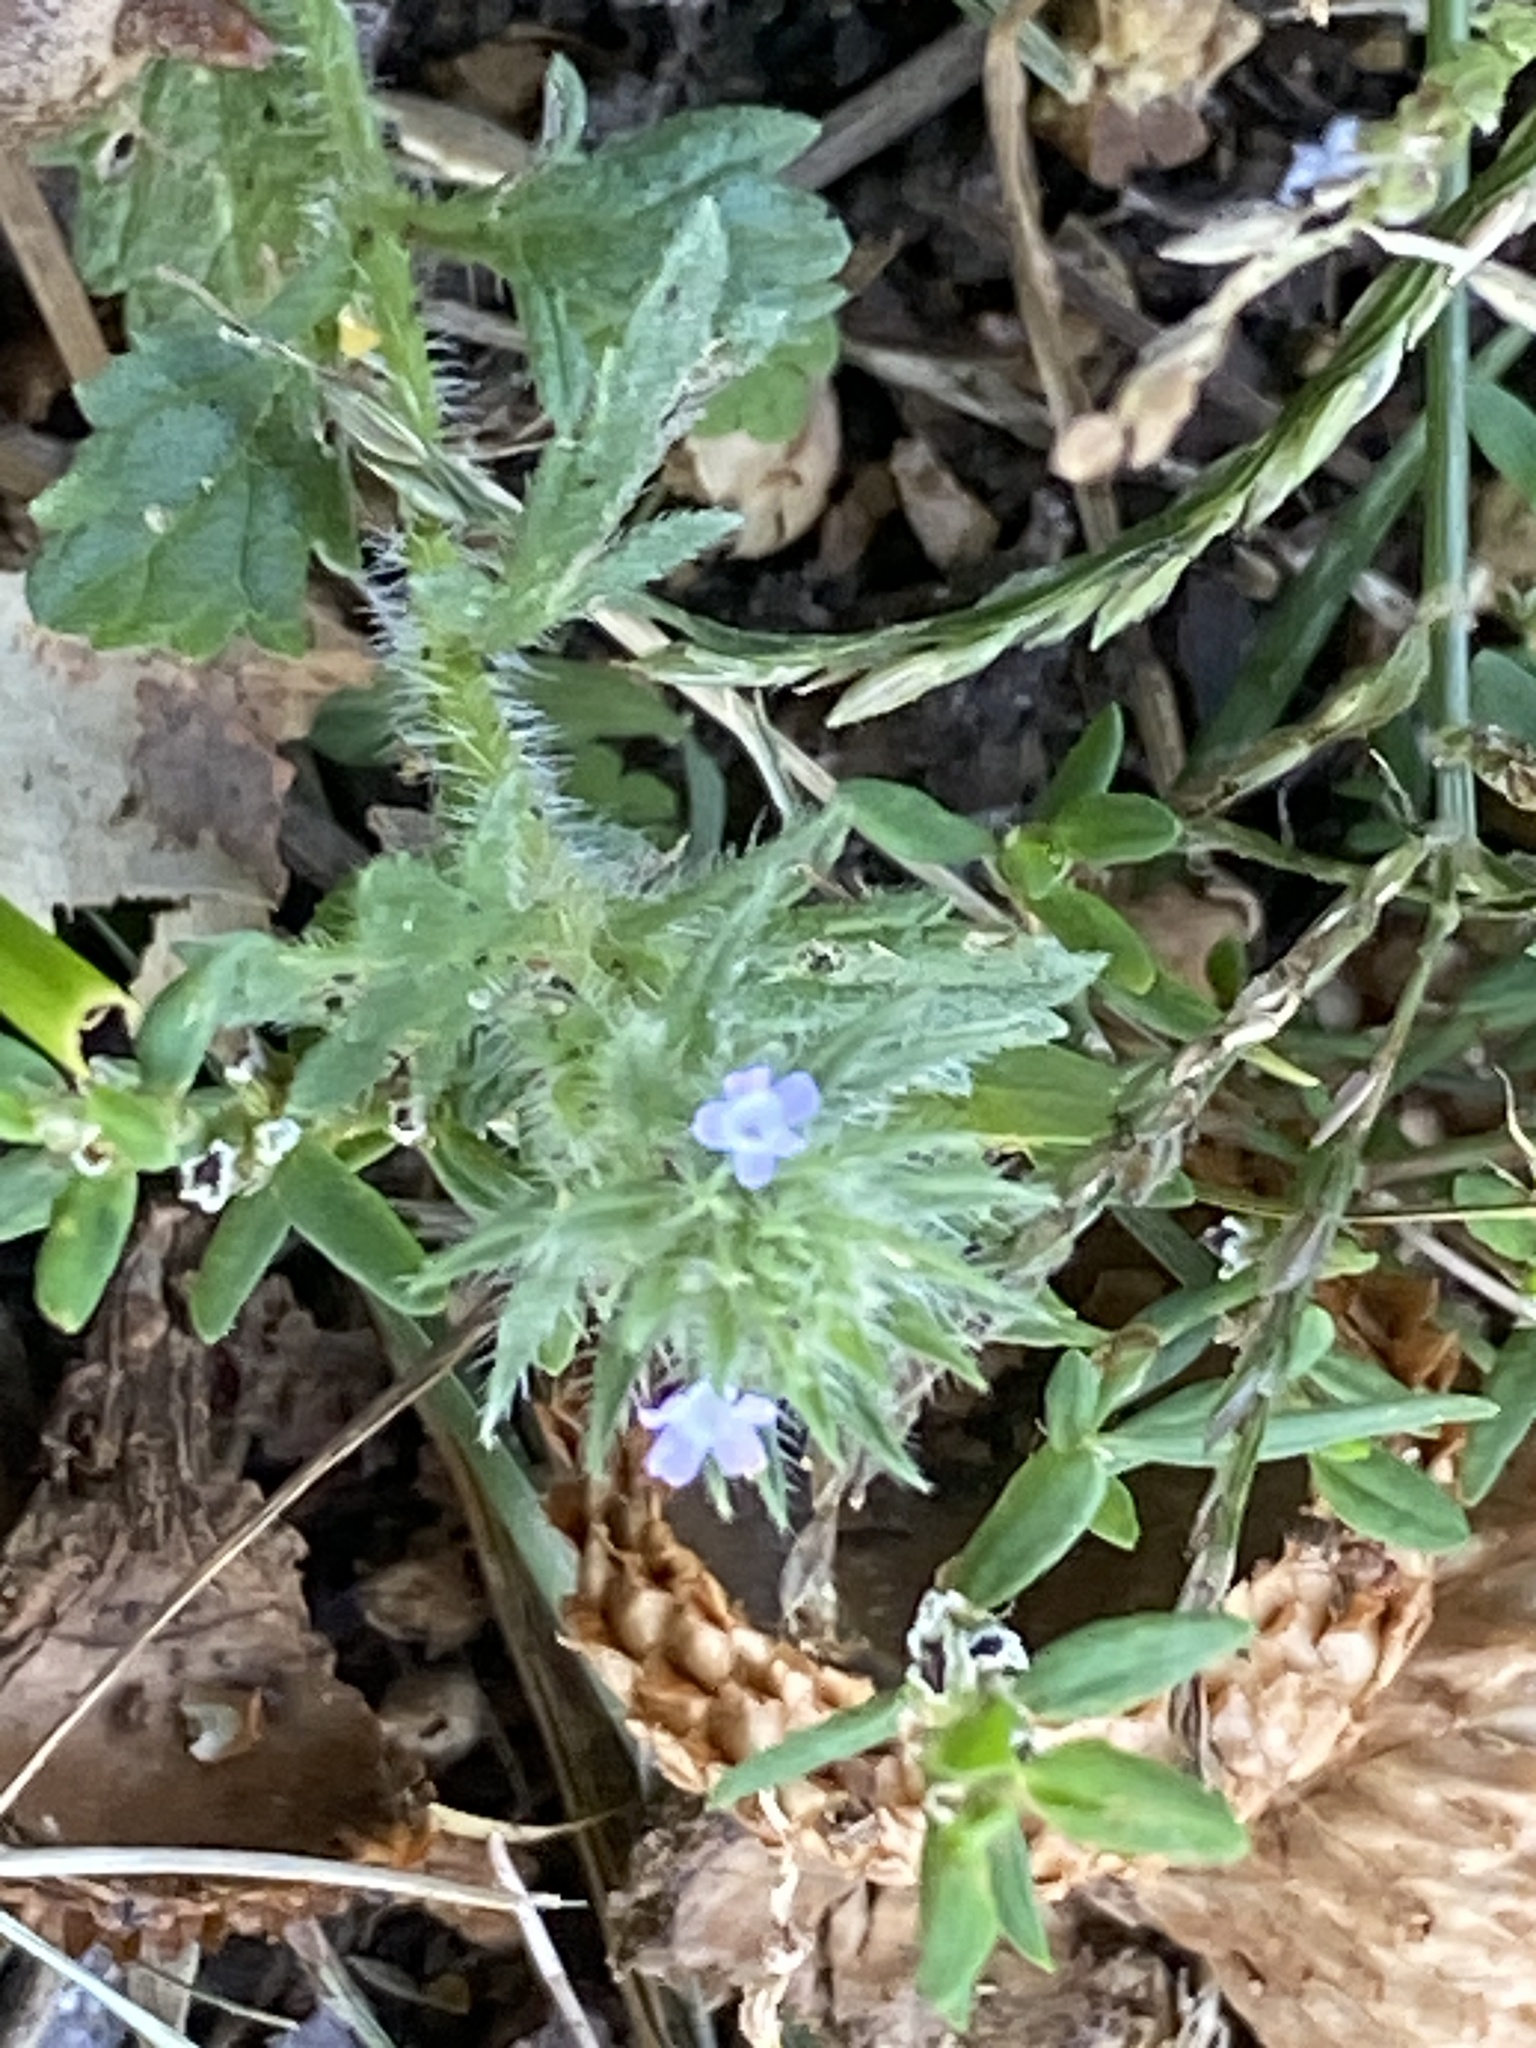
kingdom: Plantae
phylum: Tracheophyta
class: Magnoliopsida
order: Lamiales
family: Verbenaceae
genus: Verbena
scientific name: Verbena bracteata
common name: Bracted vervain
